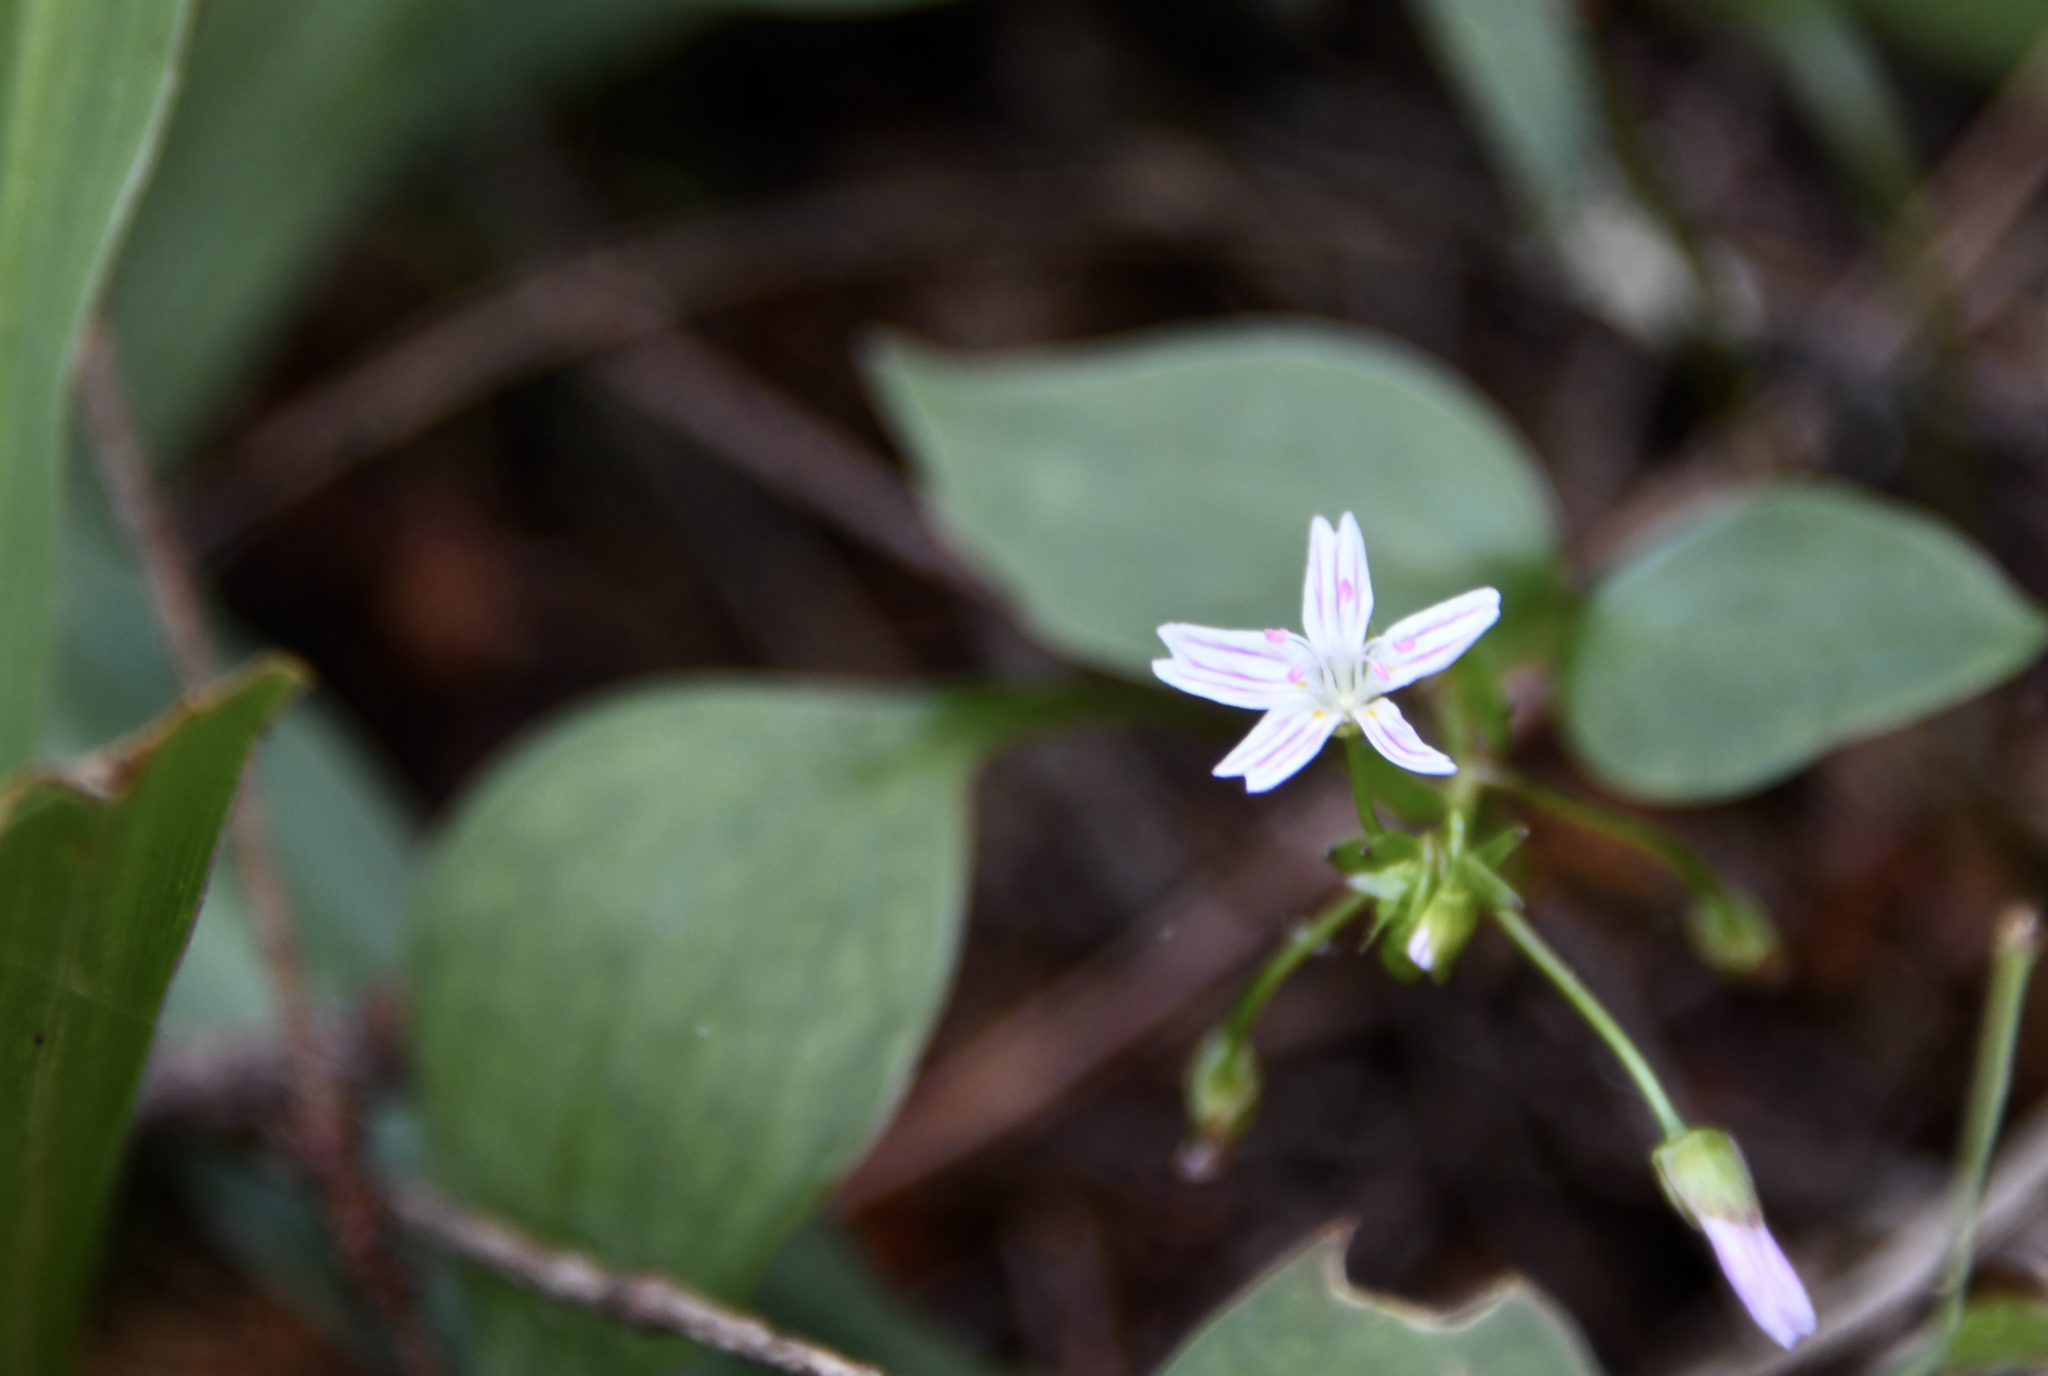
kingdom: Plantae
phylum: Tracheophyta
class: Magnoliopsida
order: Caryophyllales
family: Montiaceae
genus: Claytonia
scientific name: Claytonia sibirica
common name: Pink purslane
